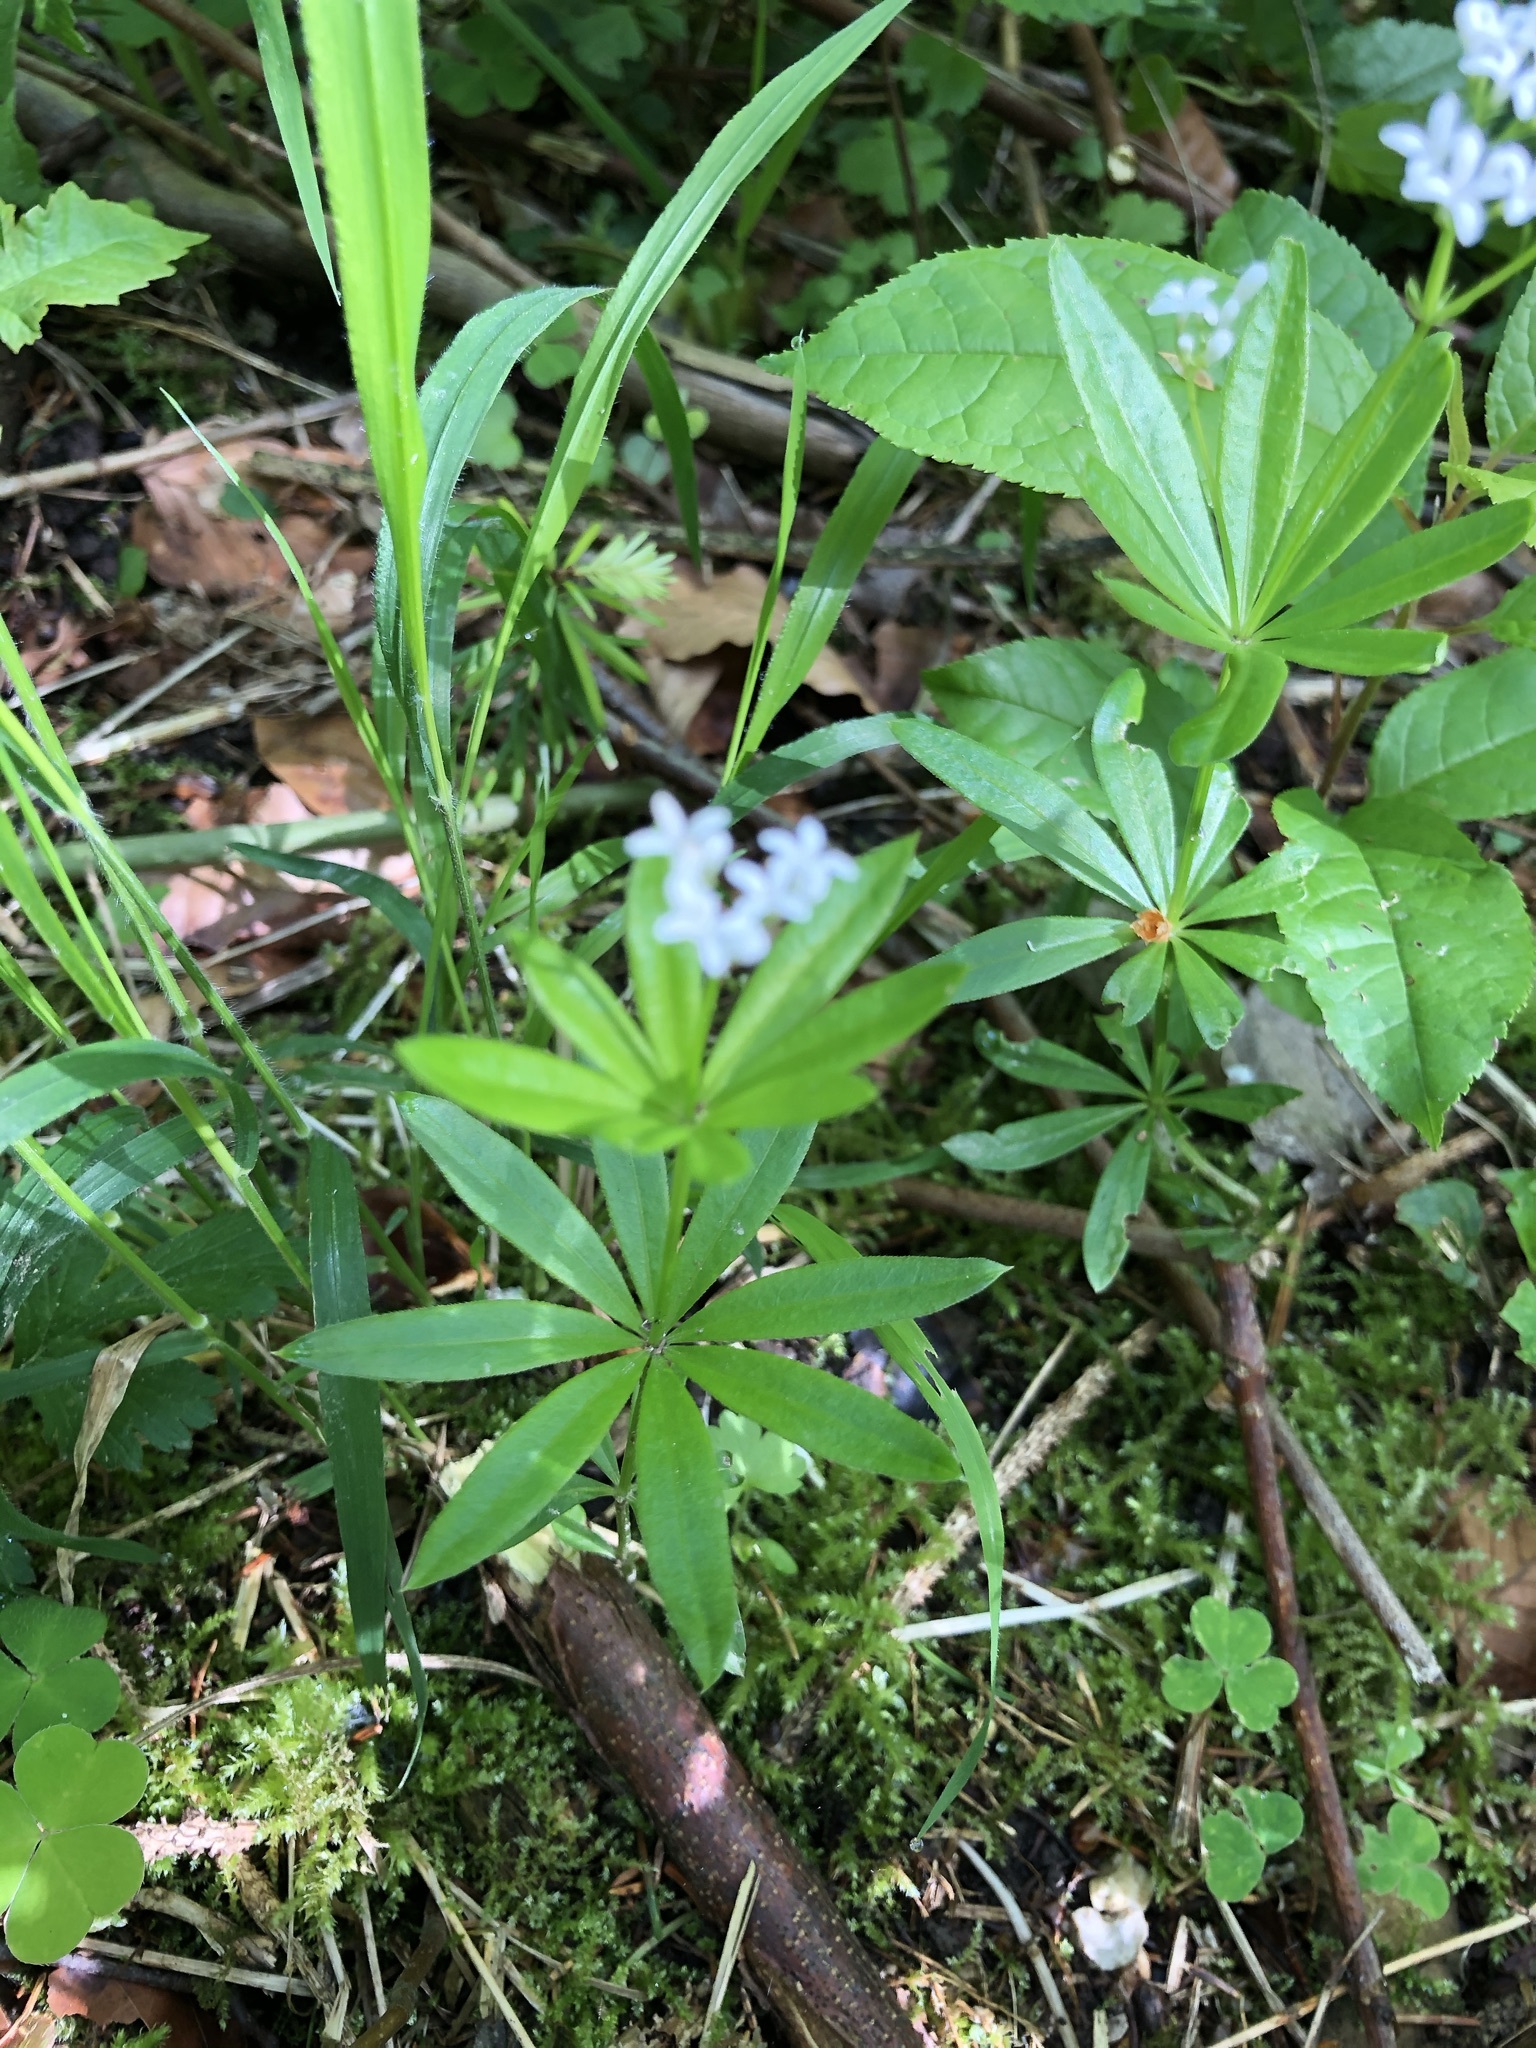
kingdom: Plantae
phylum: Tracheophyta
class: Magnoliopsida
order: Gentianales
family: Rubiaceae
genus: Galium
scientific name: Galium odoratum
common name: Sweet woodruff
